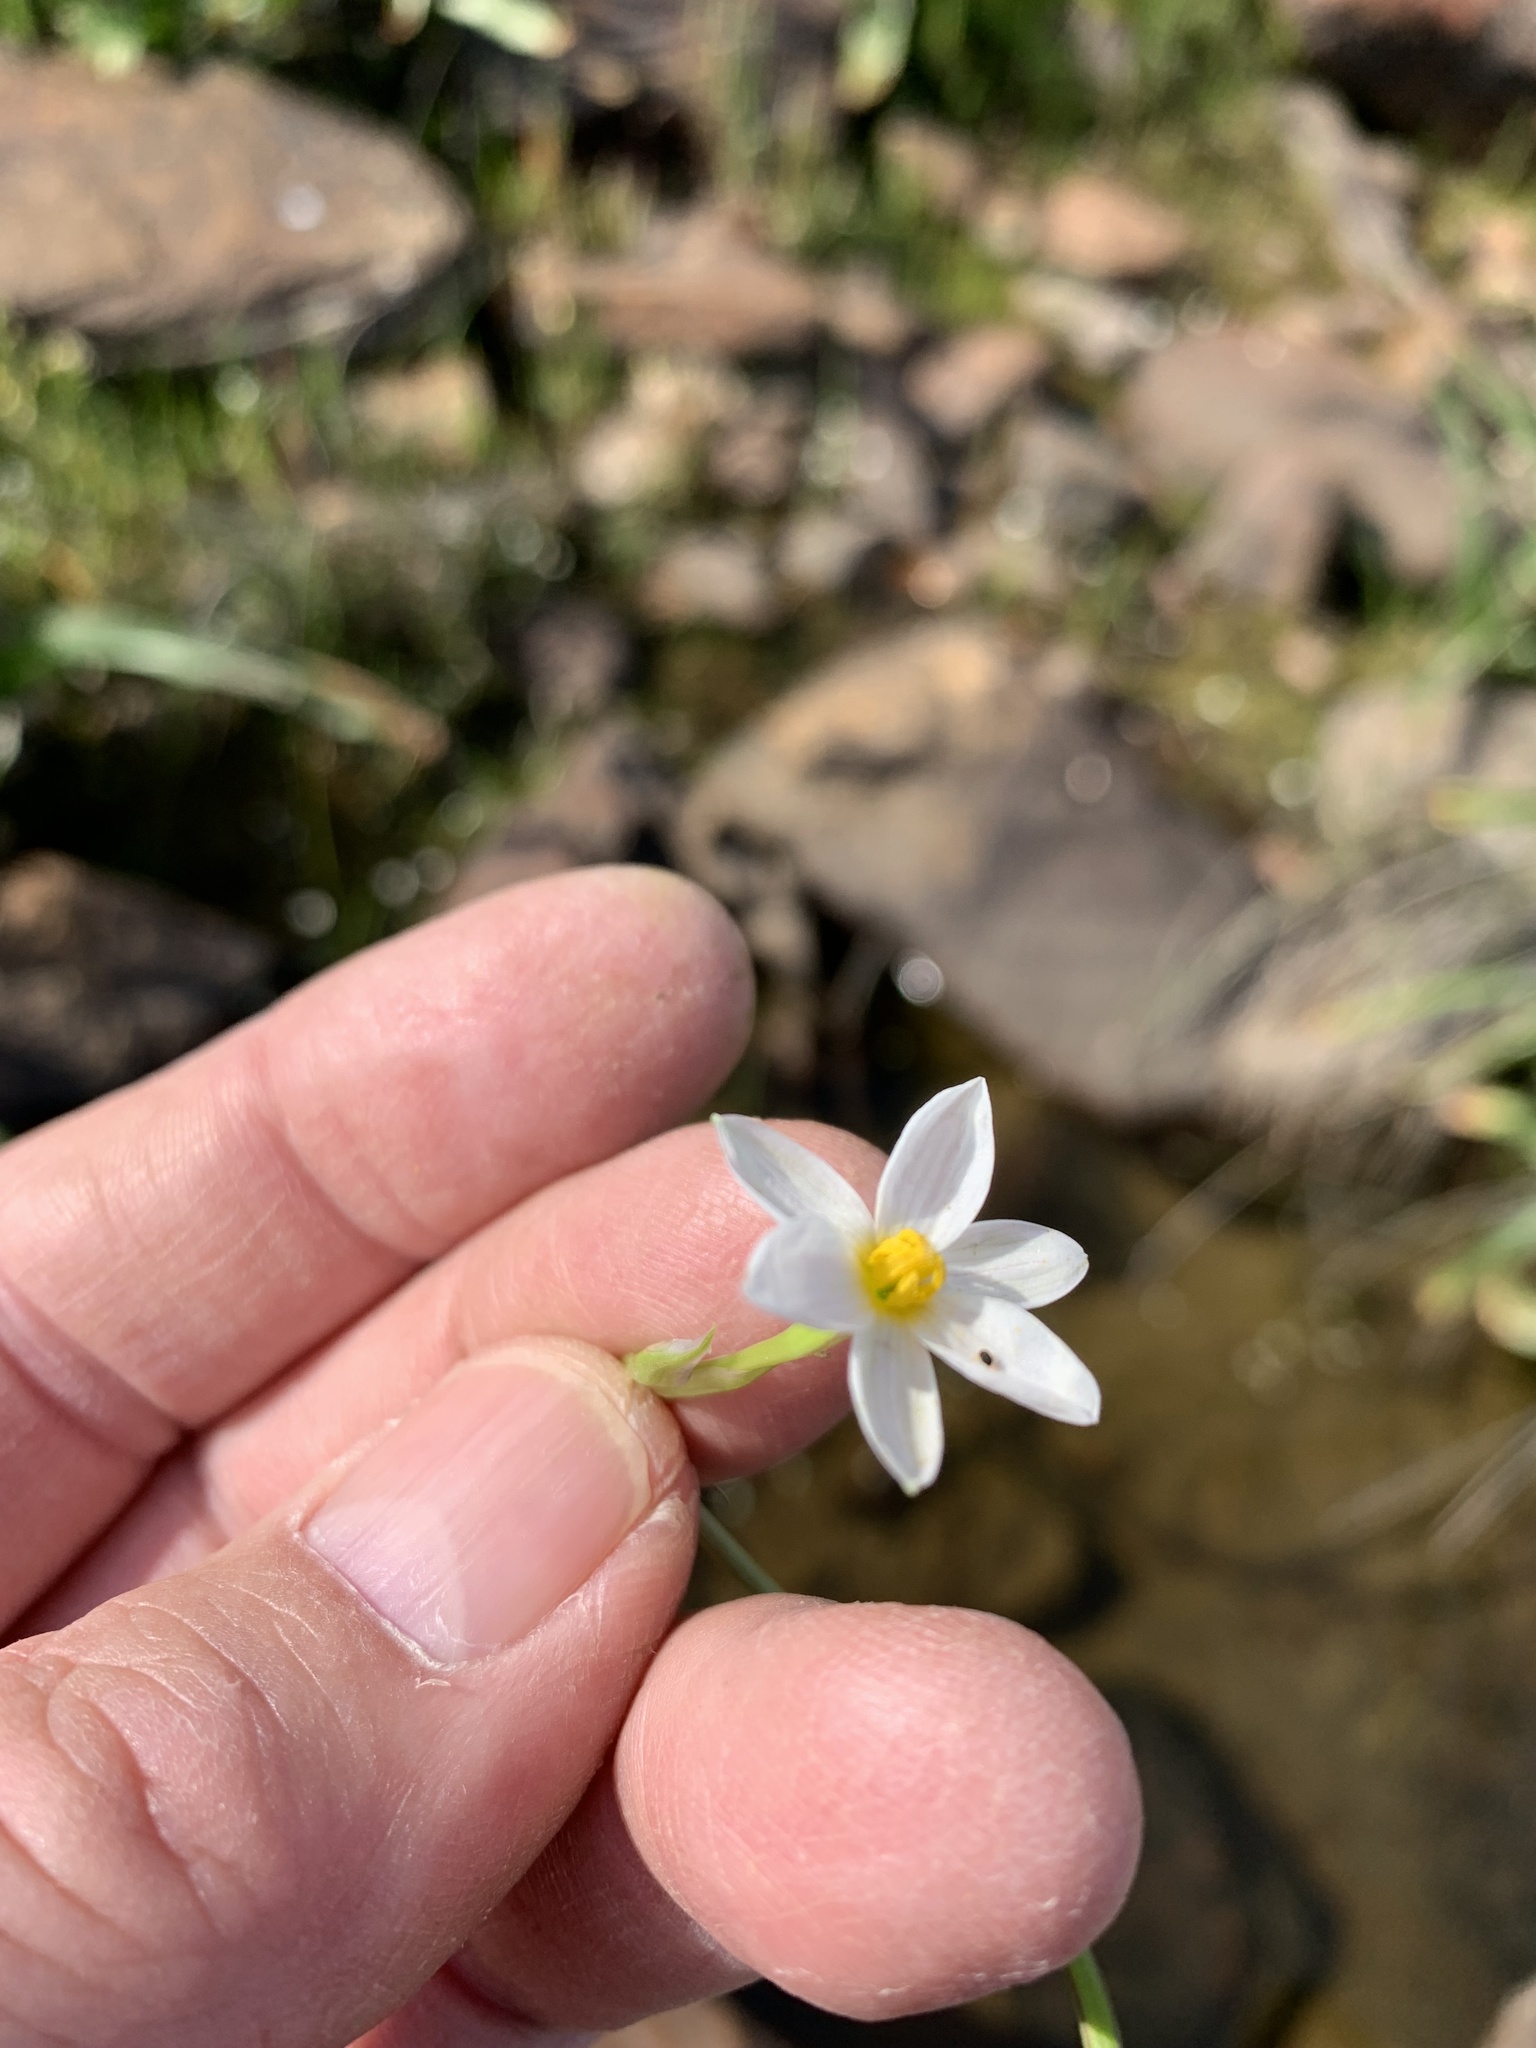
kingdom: Plantae
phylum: Tracheophyta
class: Liliopsida
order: Asparagales
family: Hypoxidaceae
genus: Pauridia
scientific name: Pauridia aquatica
